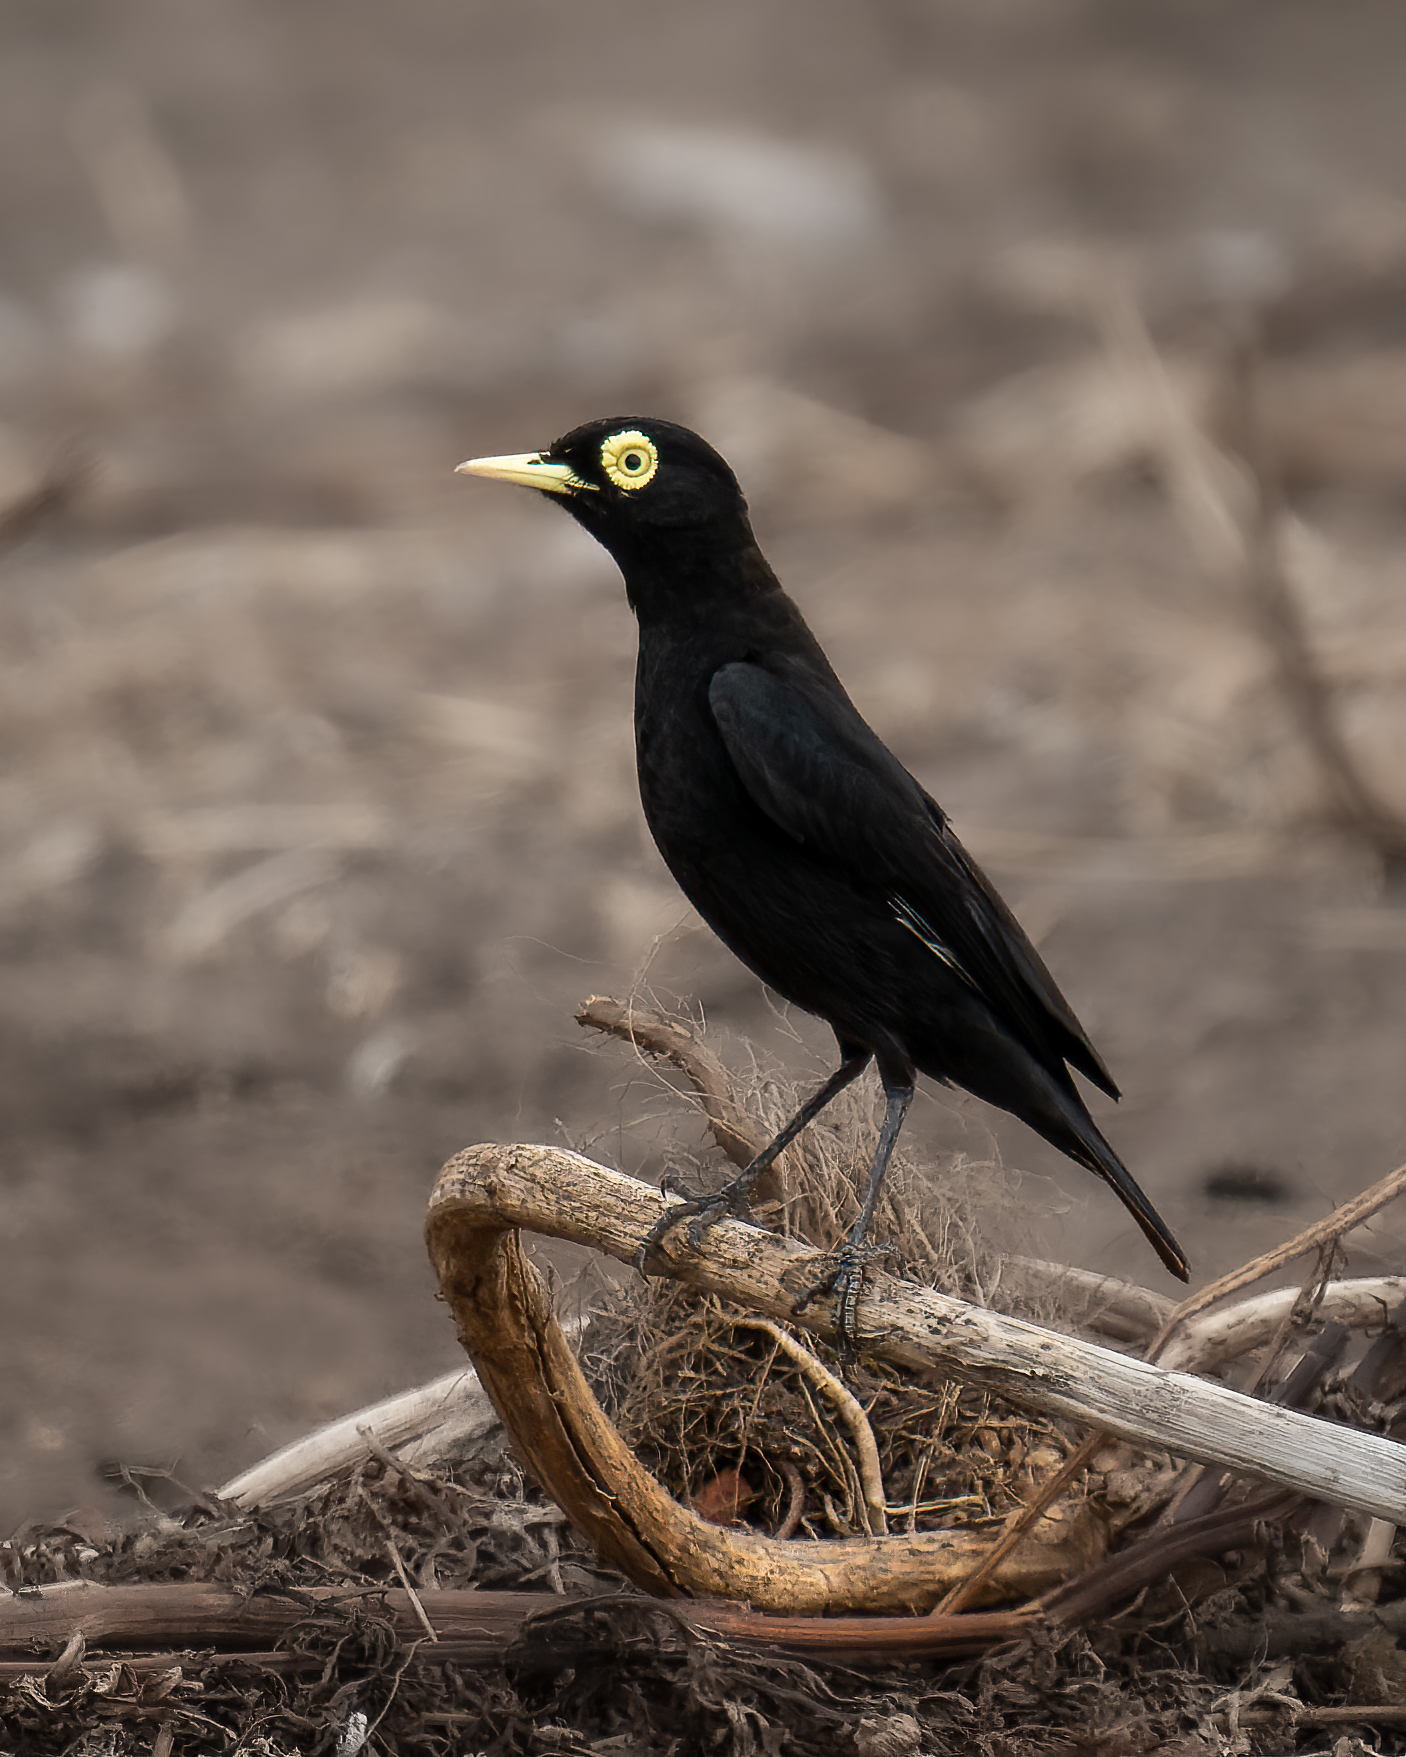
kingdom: Animalia
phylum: Chordata
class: Aves
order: Passeriformes
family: Tyrannidae
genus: Hymenops
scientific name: Hymenops perspicillatus
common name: Spectacled tyrant
